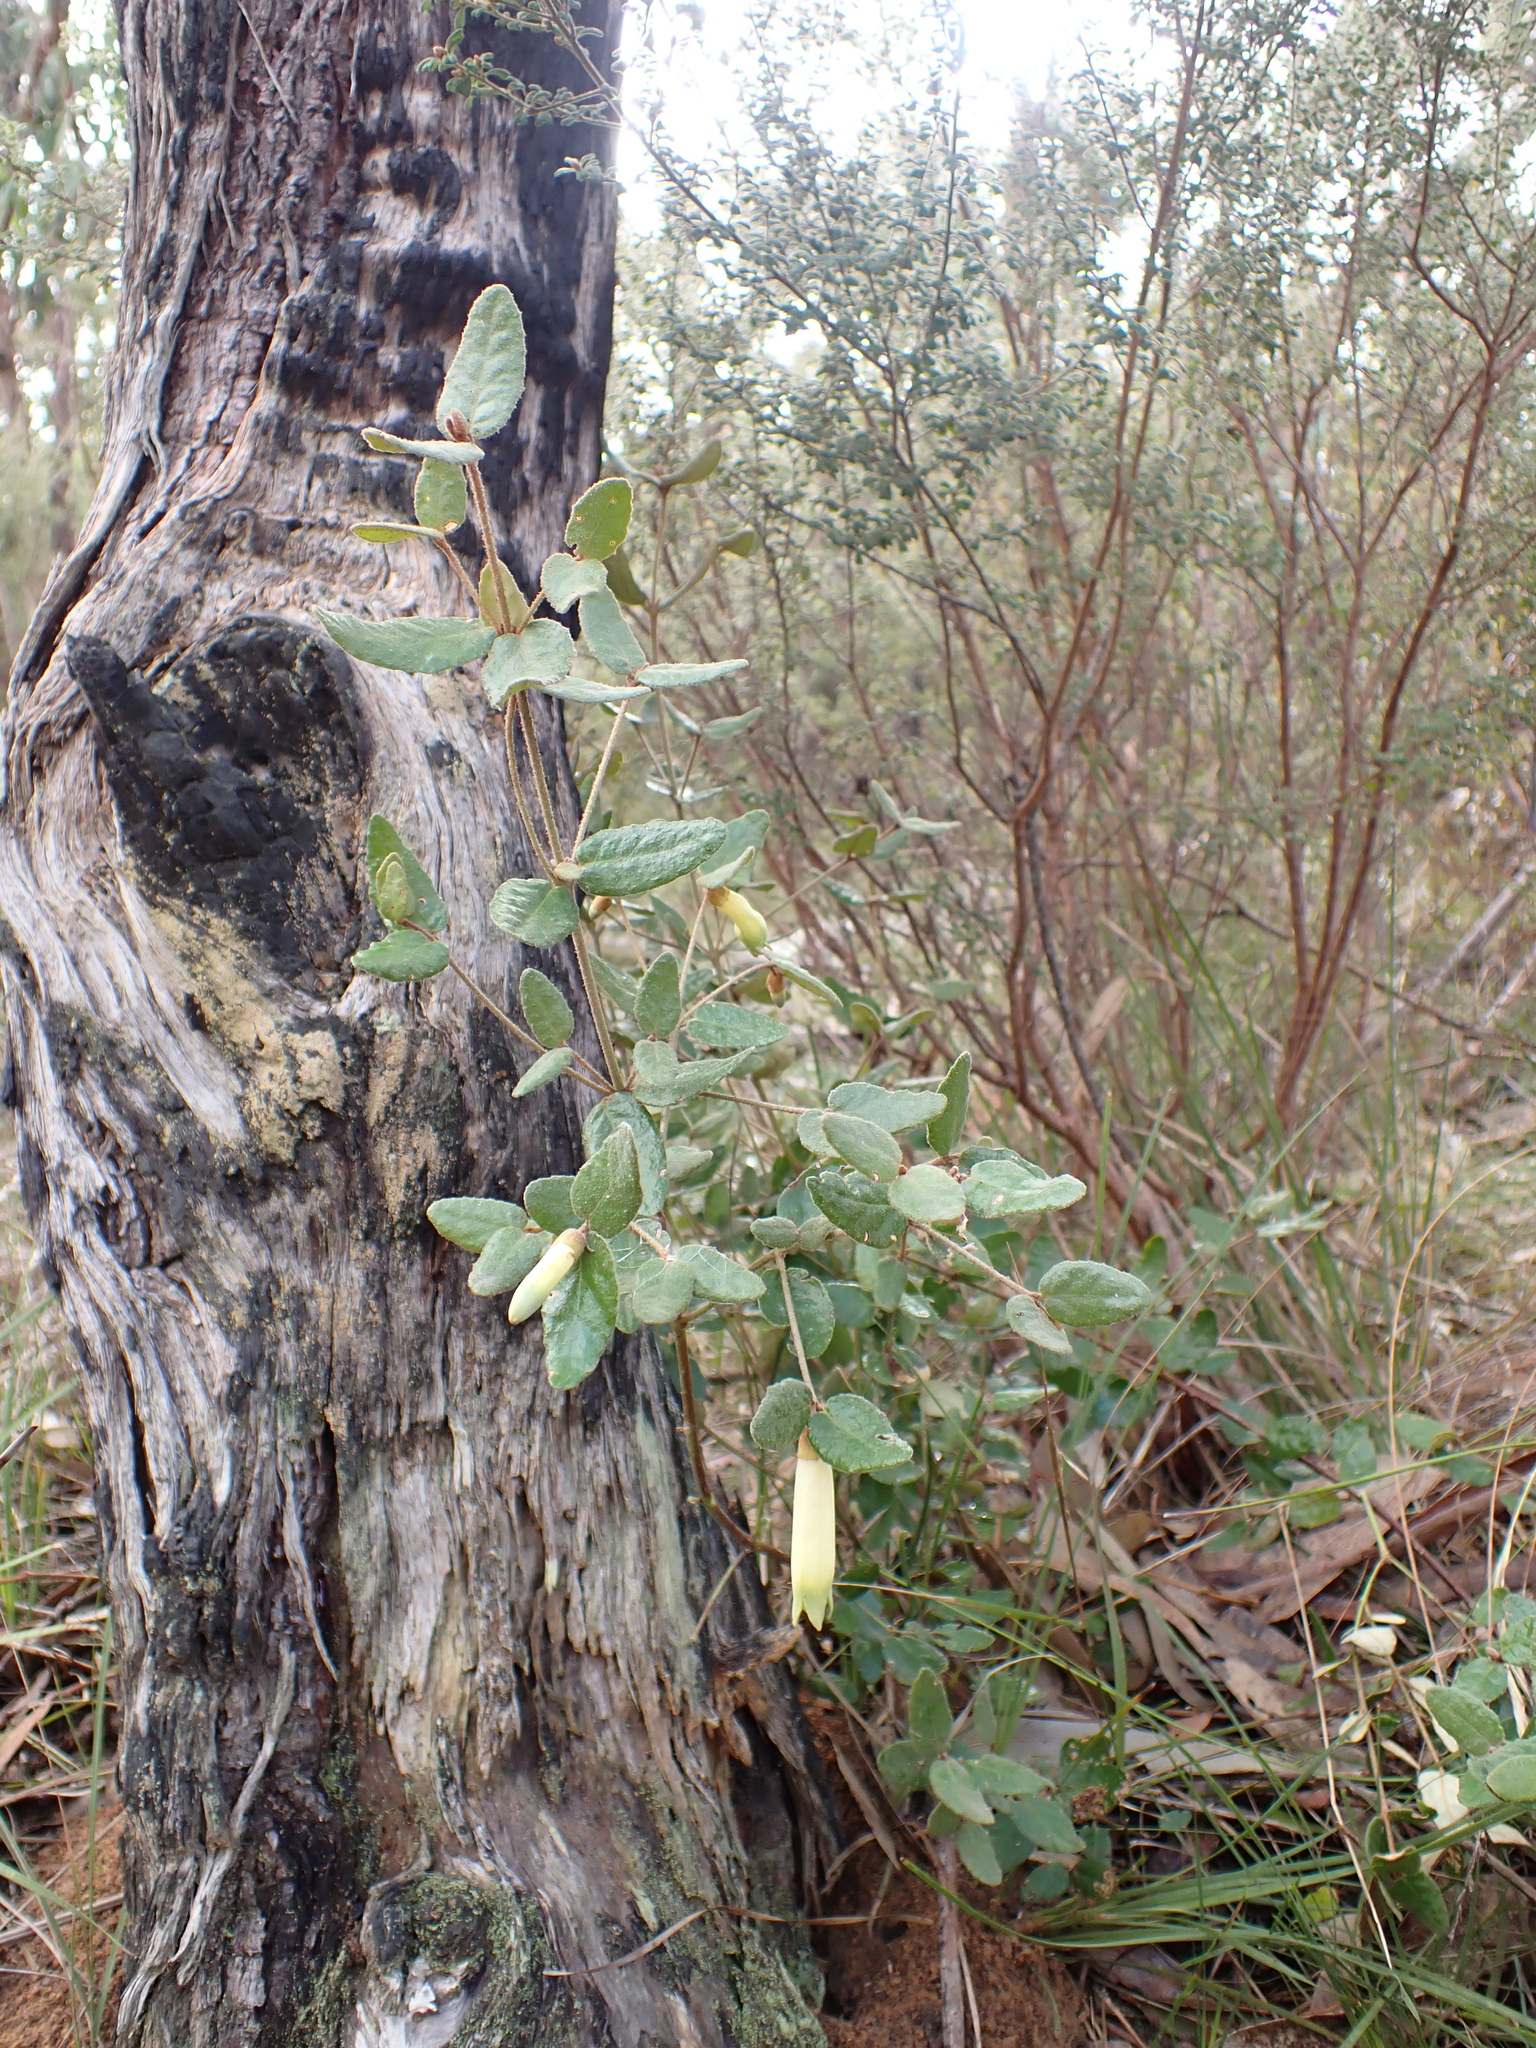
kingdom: Plantae
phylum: Tracheophyta
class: Magnoliopsida
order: Sapindales
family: Rutaceae
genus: Correa
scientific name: Correa reflexa
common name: Common correa
